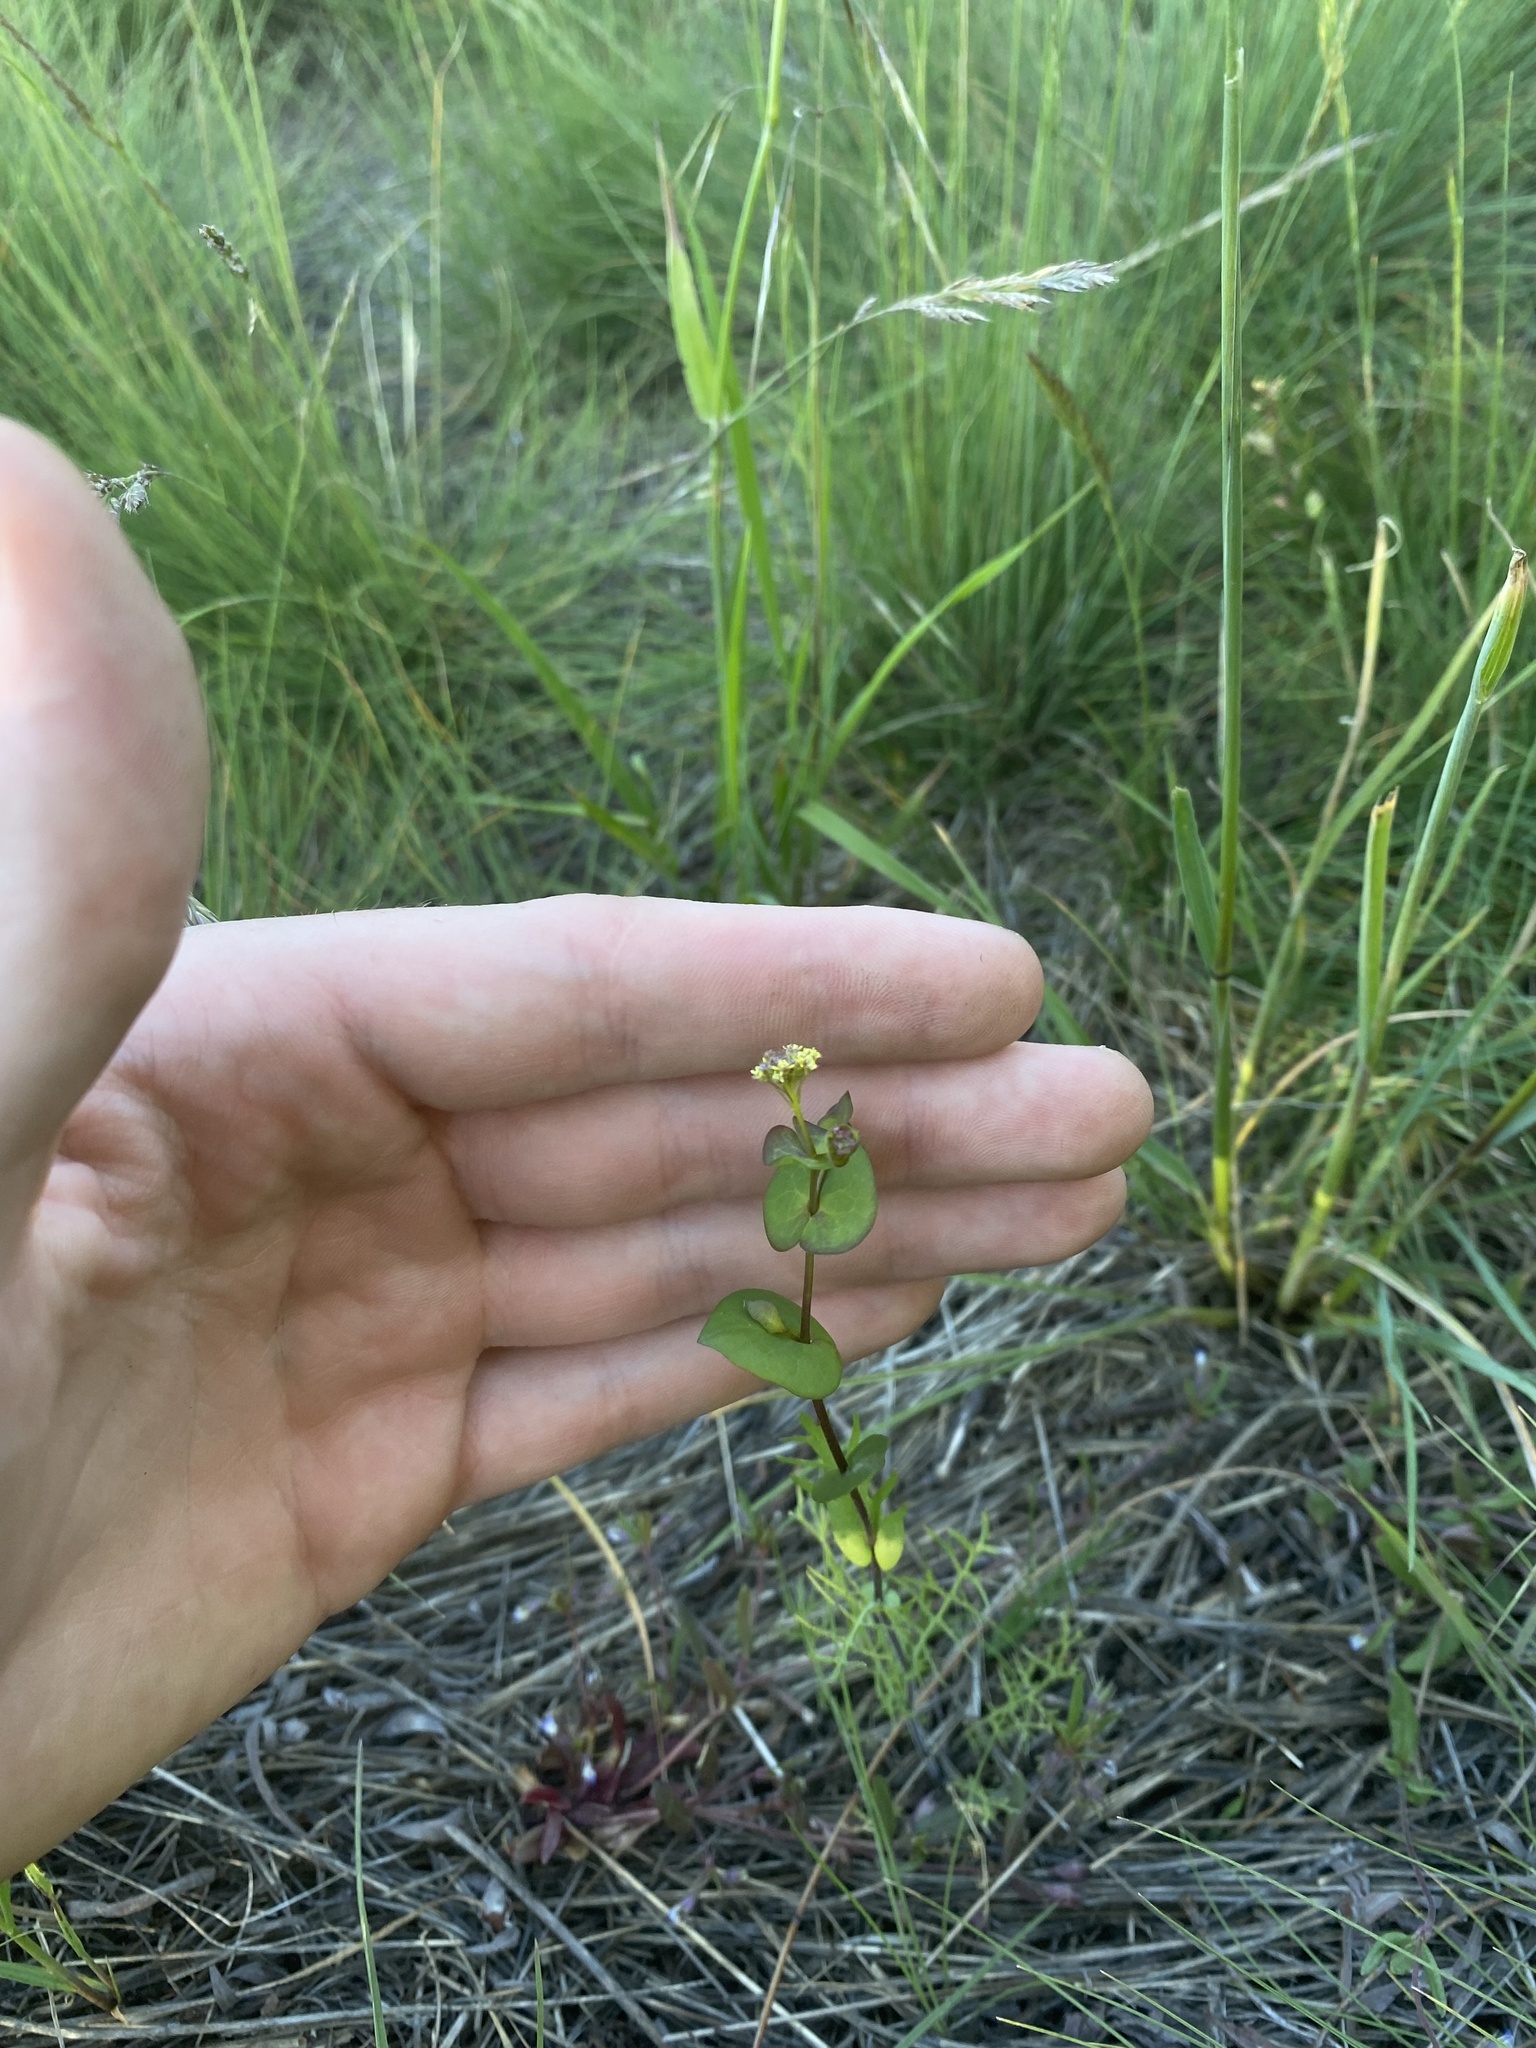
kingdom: Plantae
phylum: Tracheophyta
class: Magnoliopsida
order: Brassicales
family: Brassicaceae
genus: Lepidium
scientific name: Lepidium perfoliatum
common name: Perfoliate pepperwort
